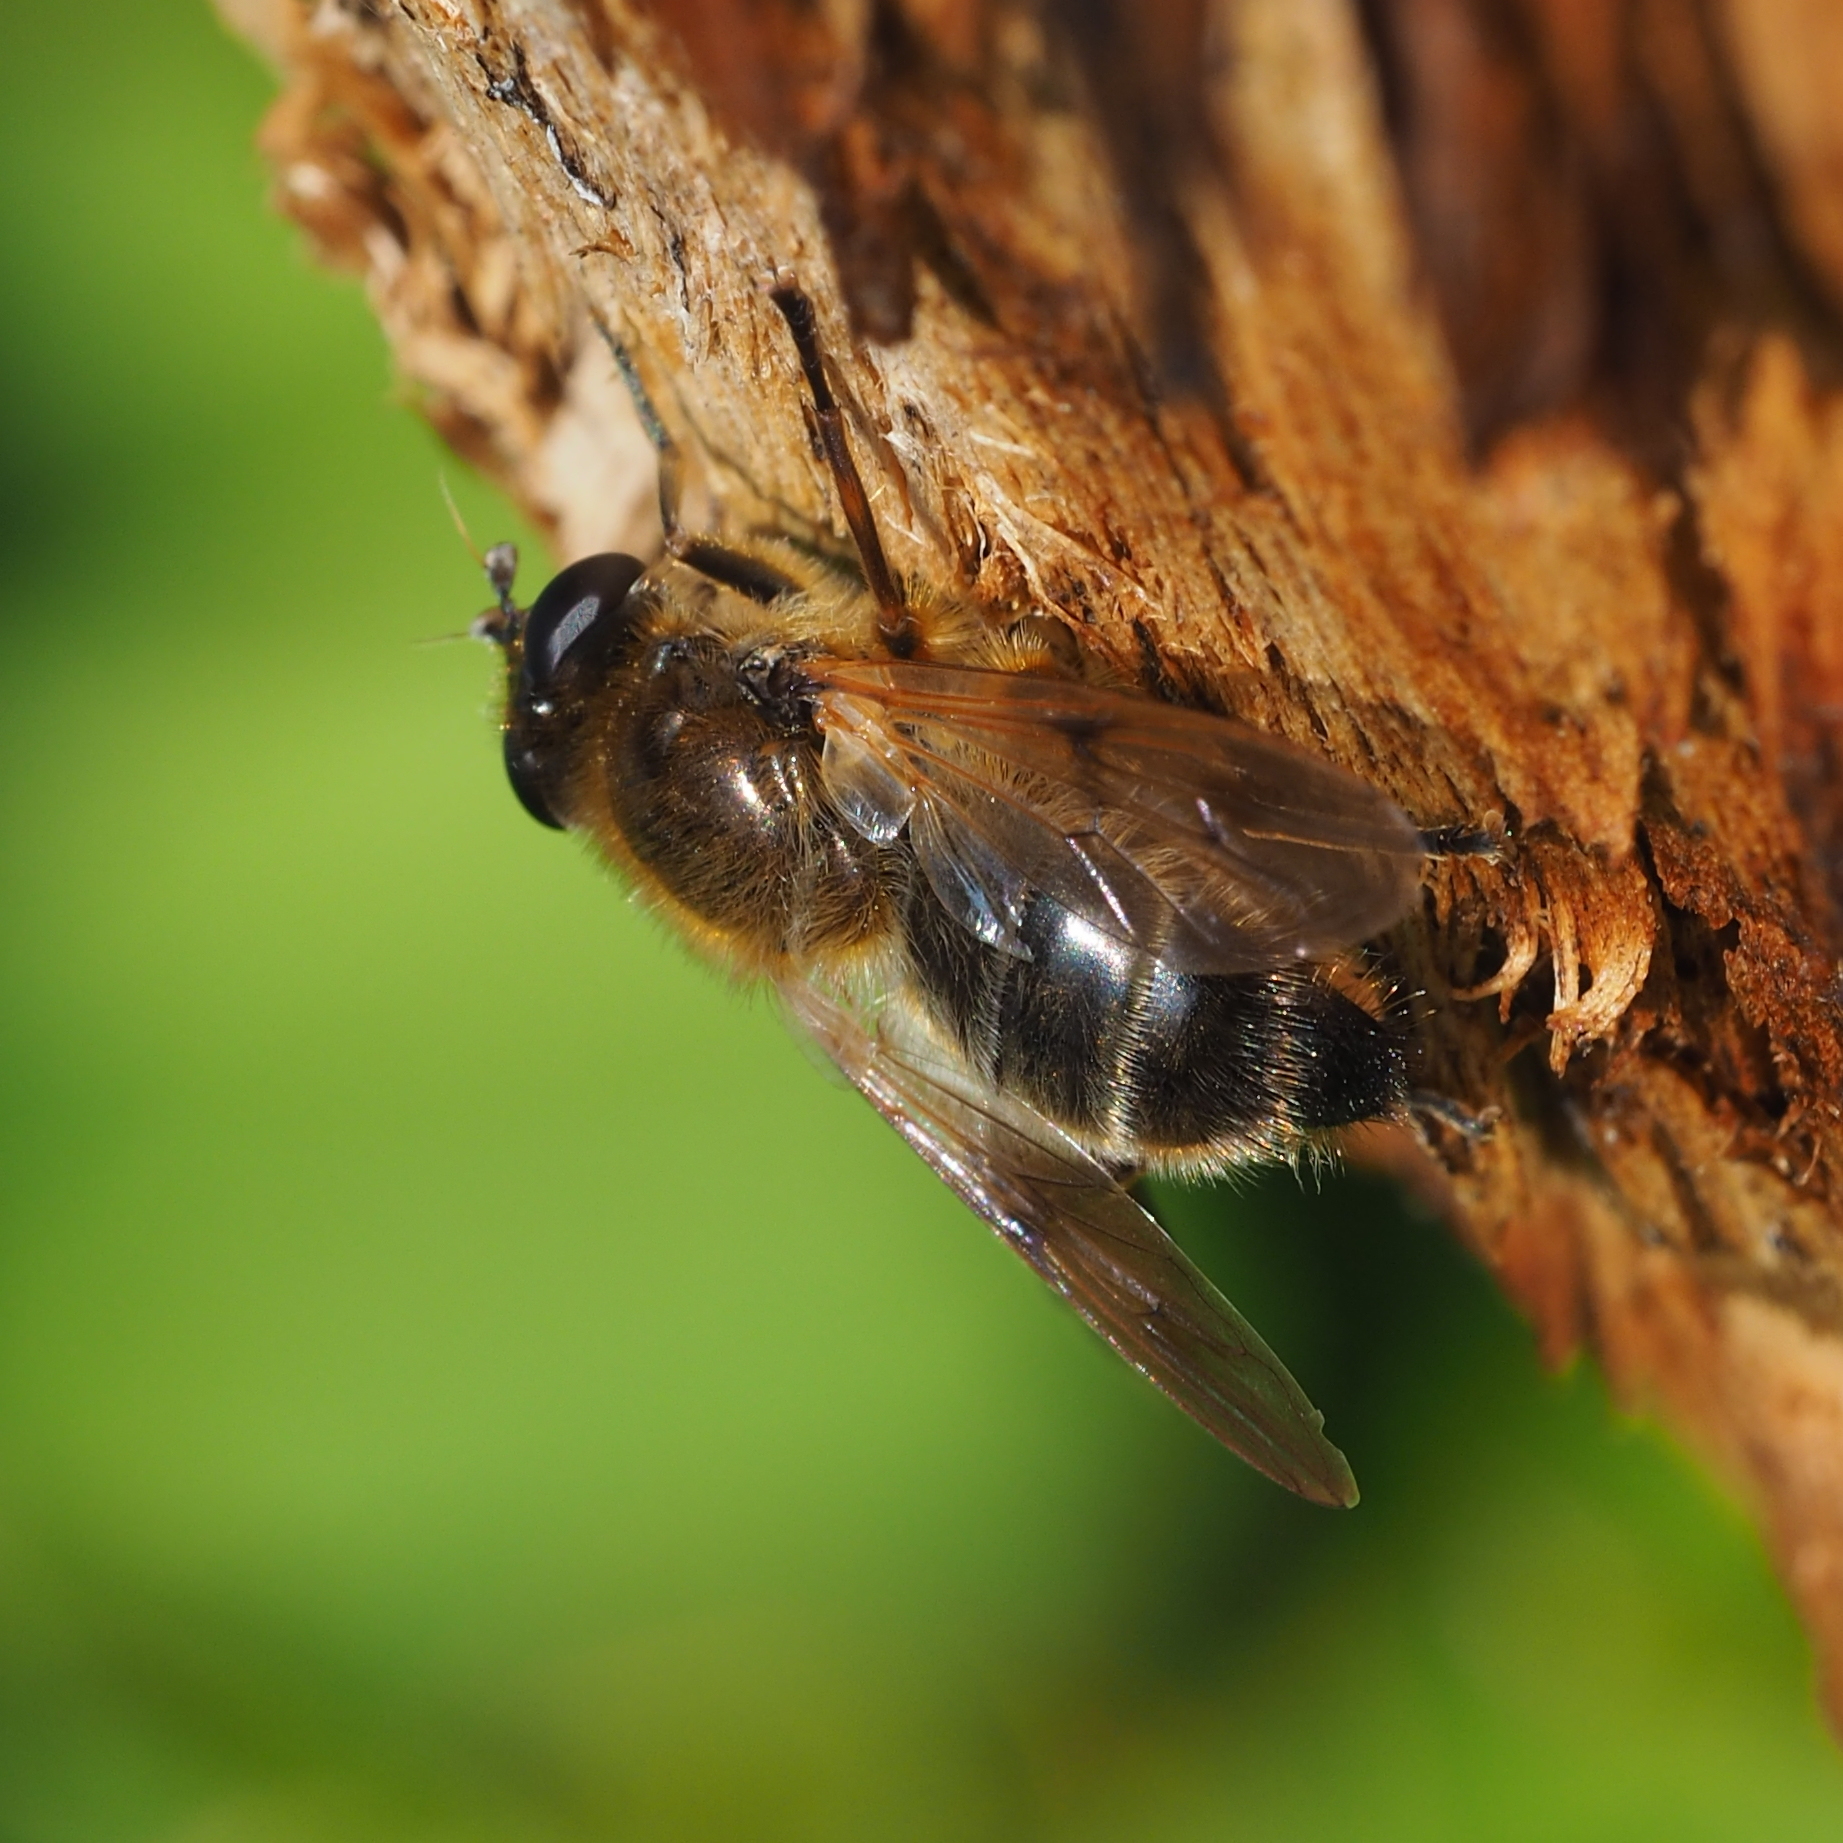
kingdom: Animalia
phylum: Arthropoda
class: Insecta
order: Diptera
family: Syrphidae
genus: Brachypalpus
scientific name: Brachypalpus valgus
